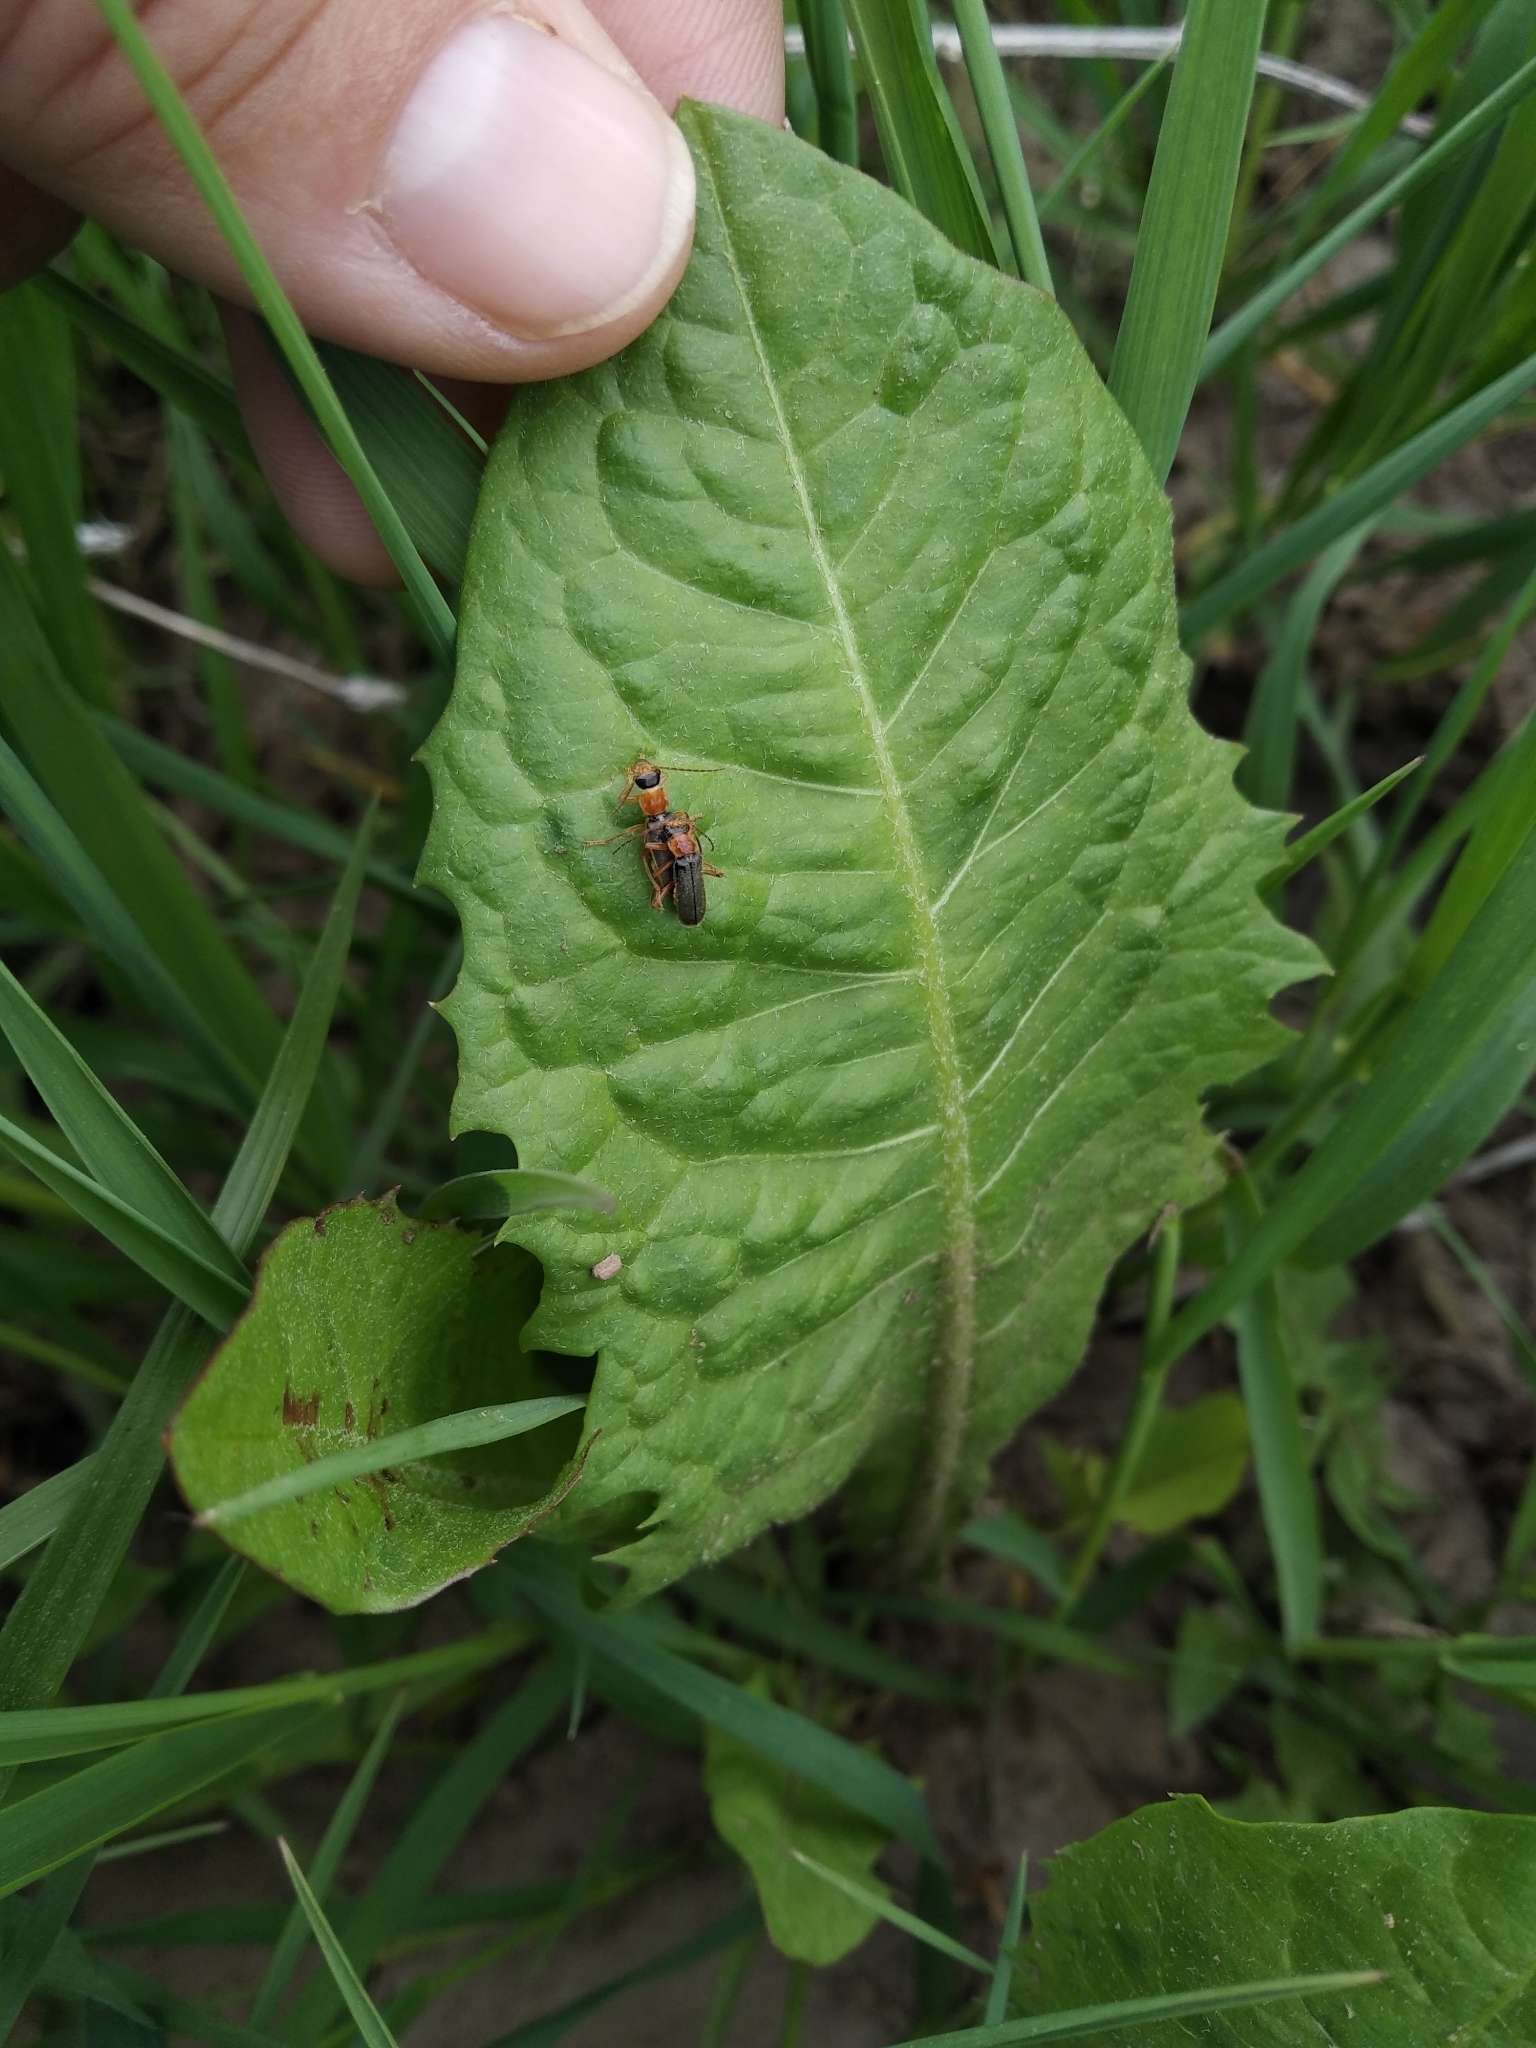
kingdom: Animalia
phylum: Arthropoda
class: Insecta
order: Coleoptera
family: Cantharidae
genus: Cantharis
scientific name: Cantharis
